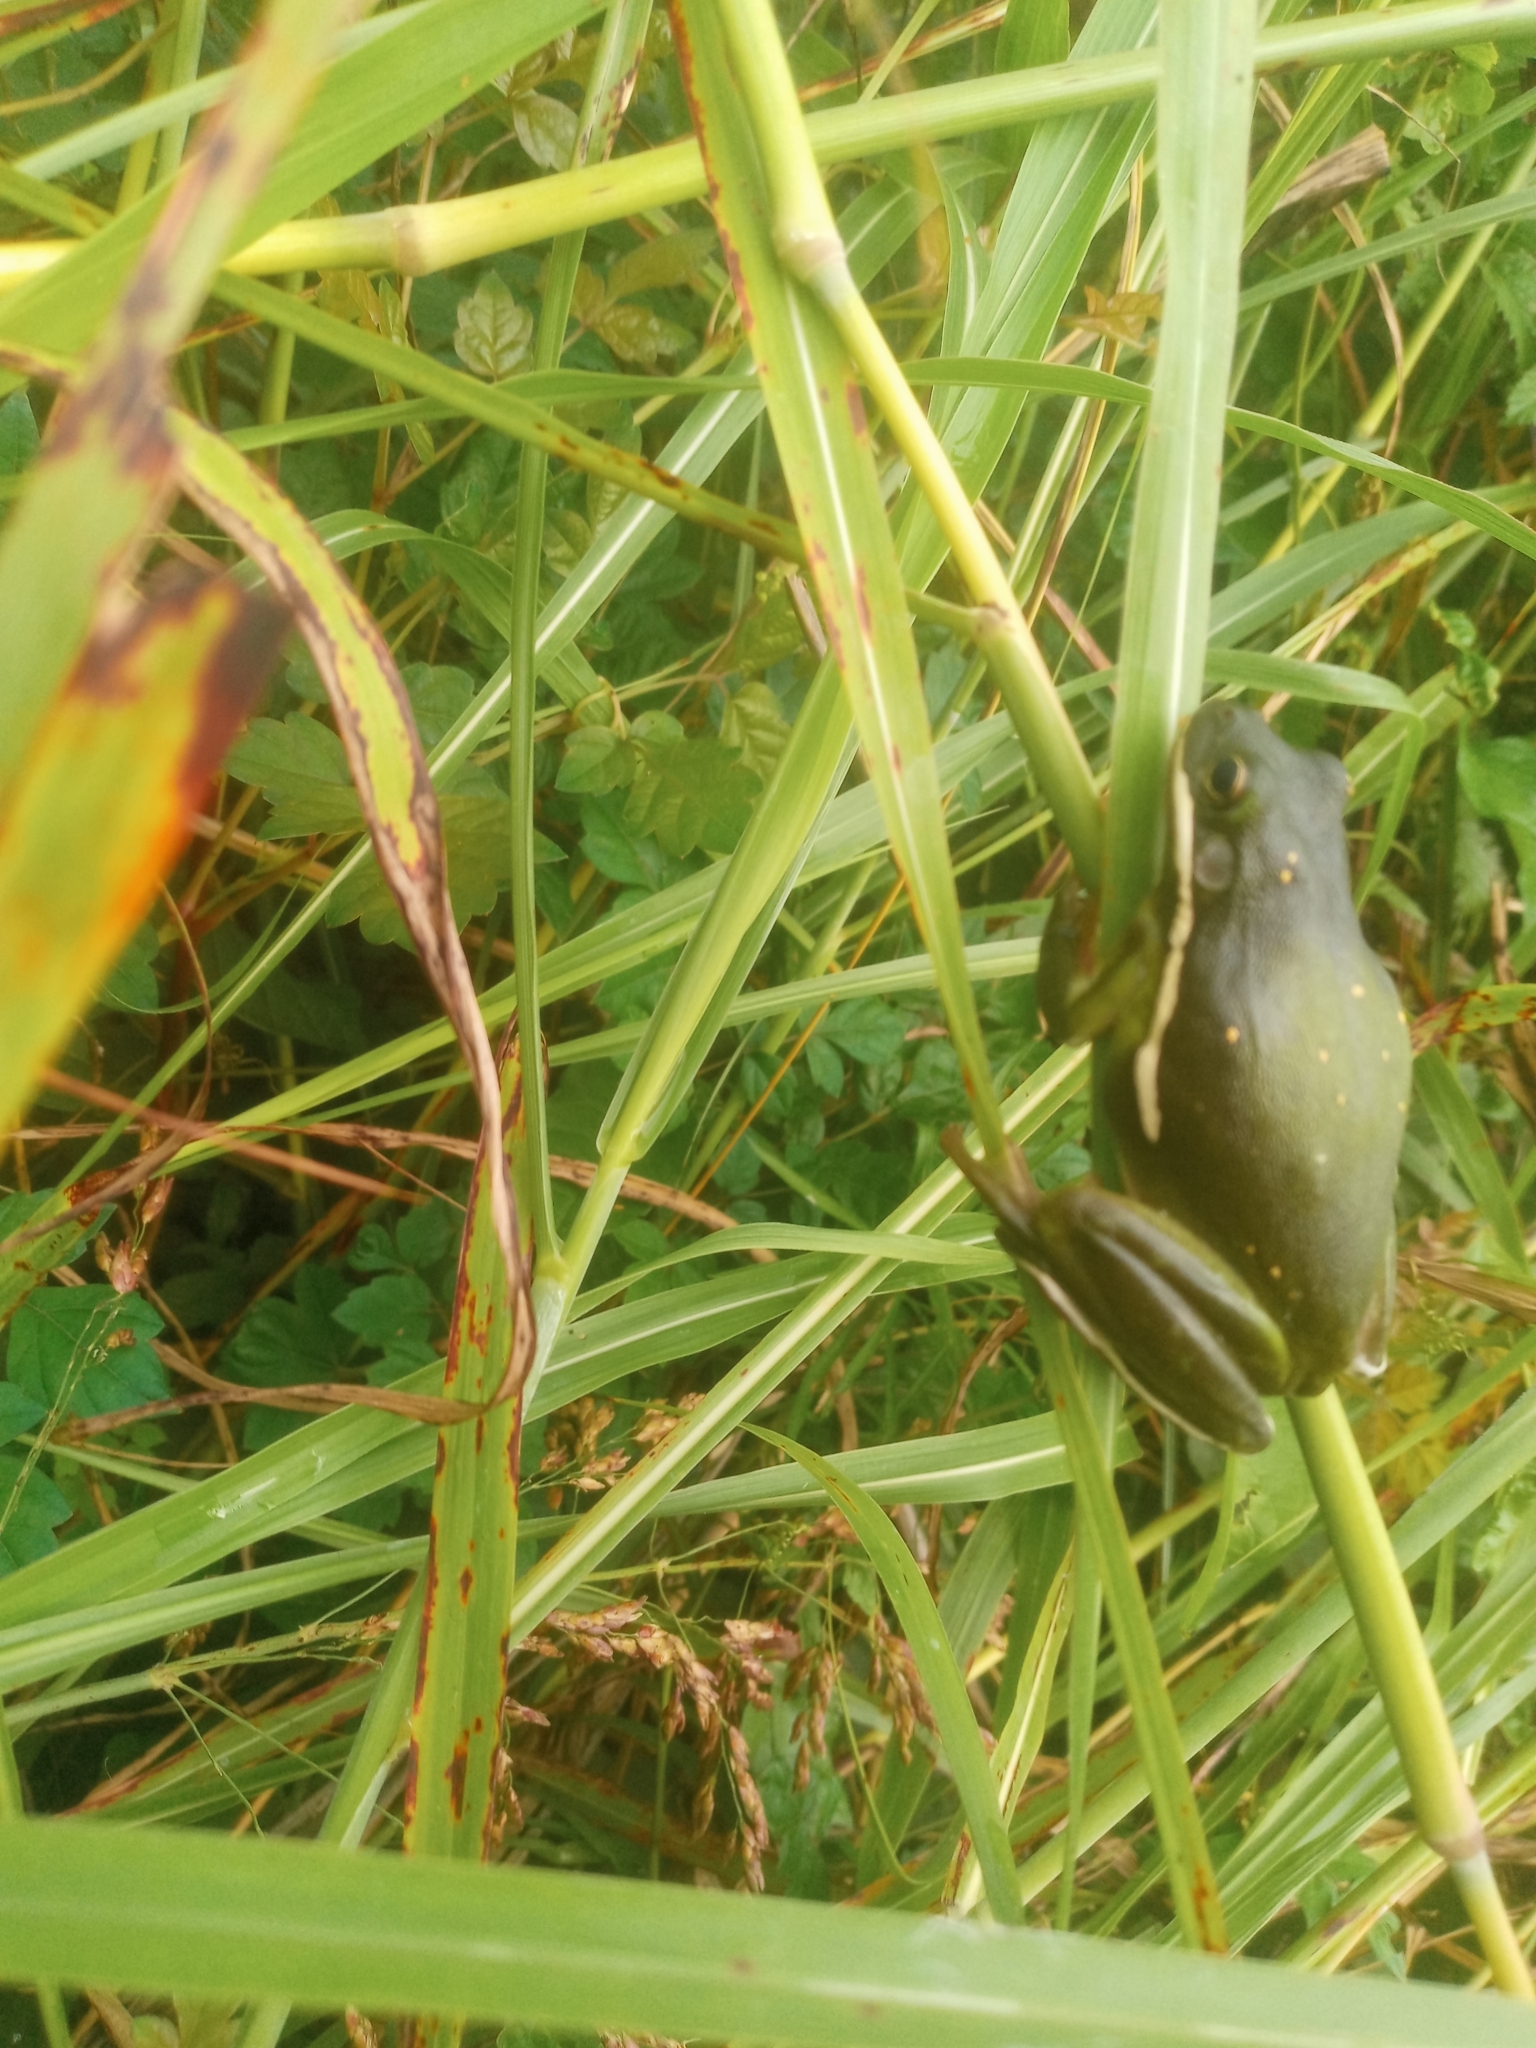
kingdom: Animalia
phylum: Chordata
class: Amphibia
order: Anura
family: Hylidae
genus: Dryophytes
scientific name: Dryophytes cinereus
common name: Green treefrog
